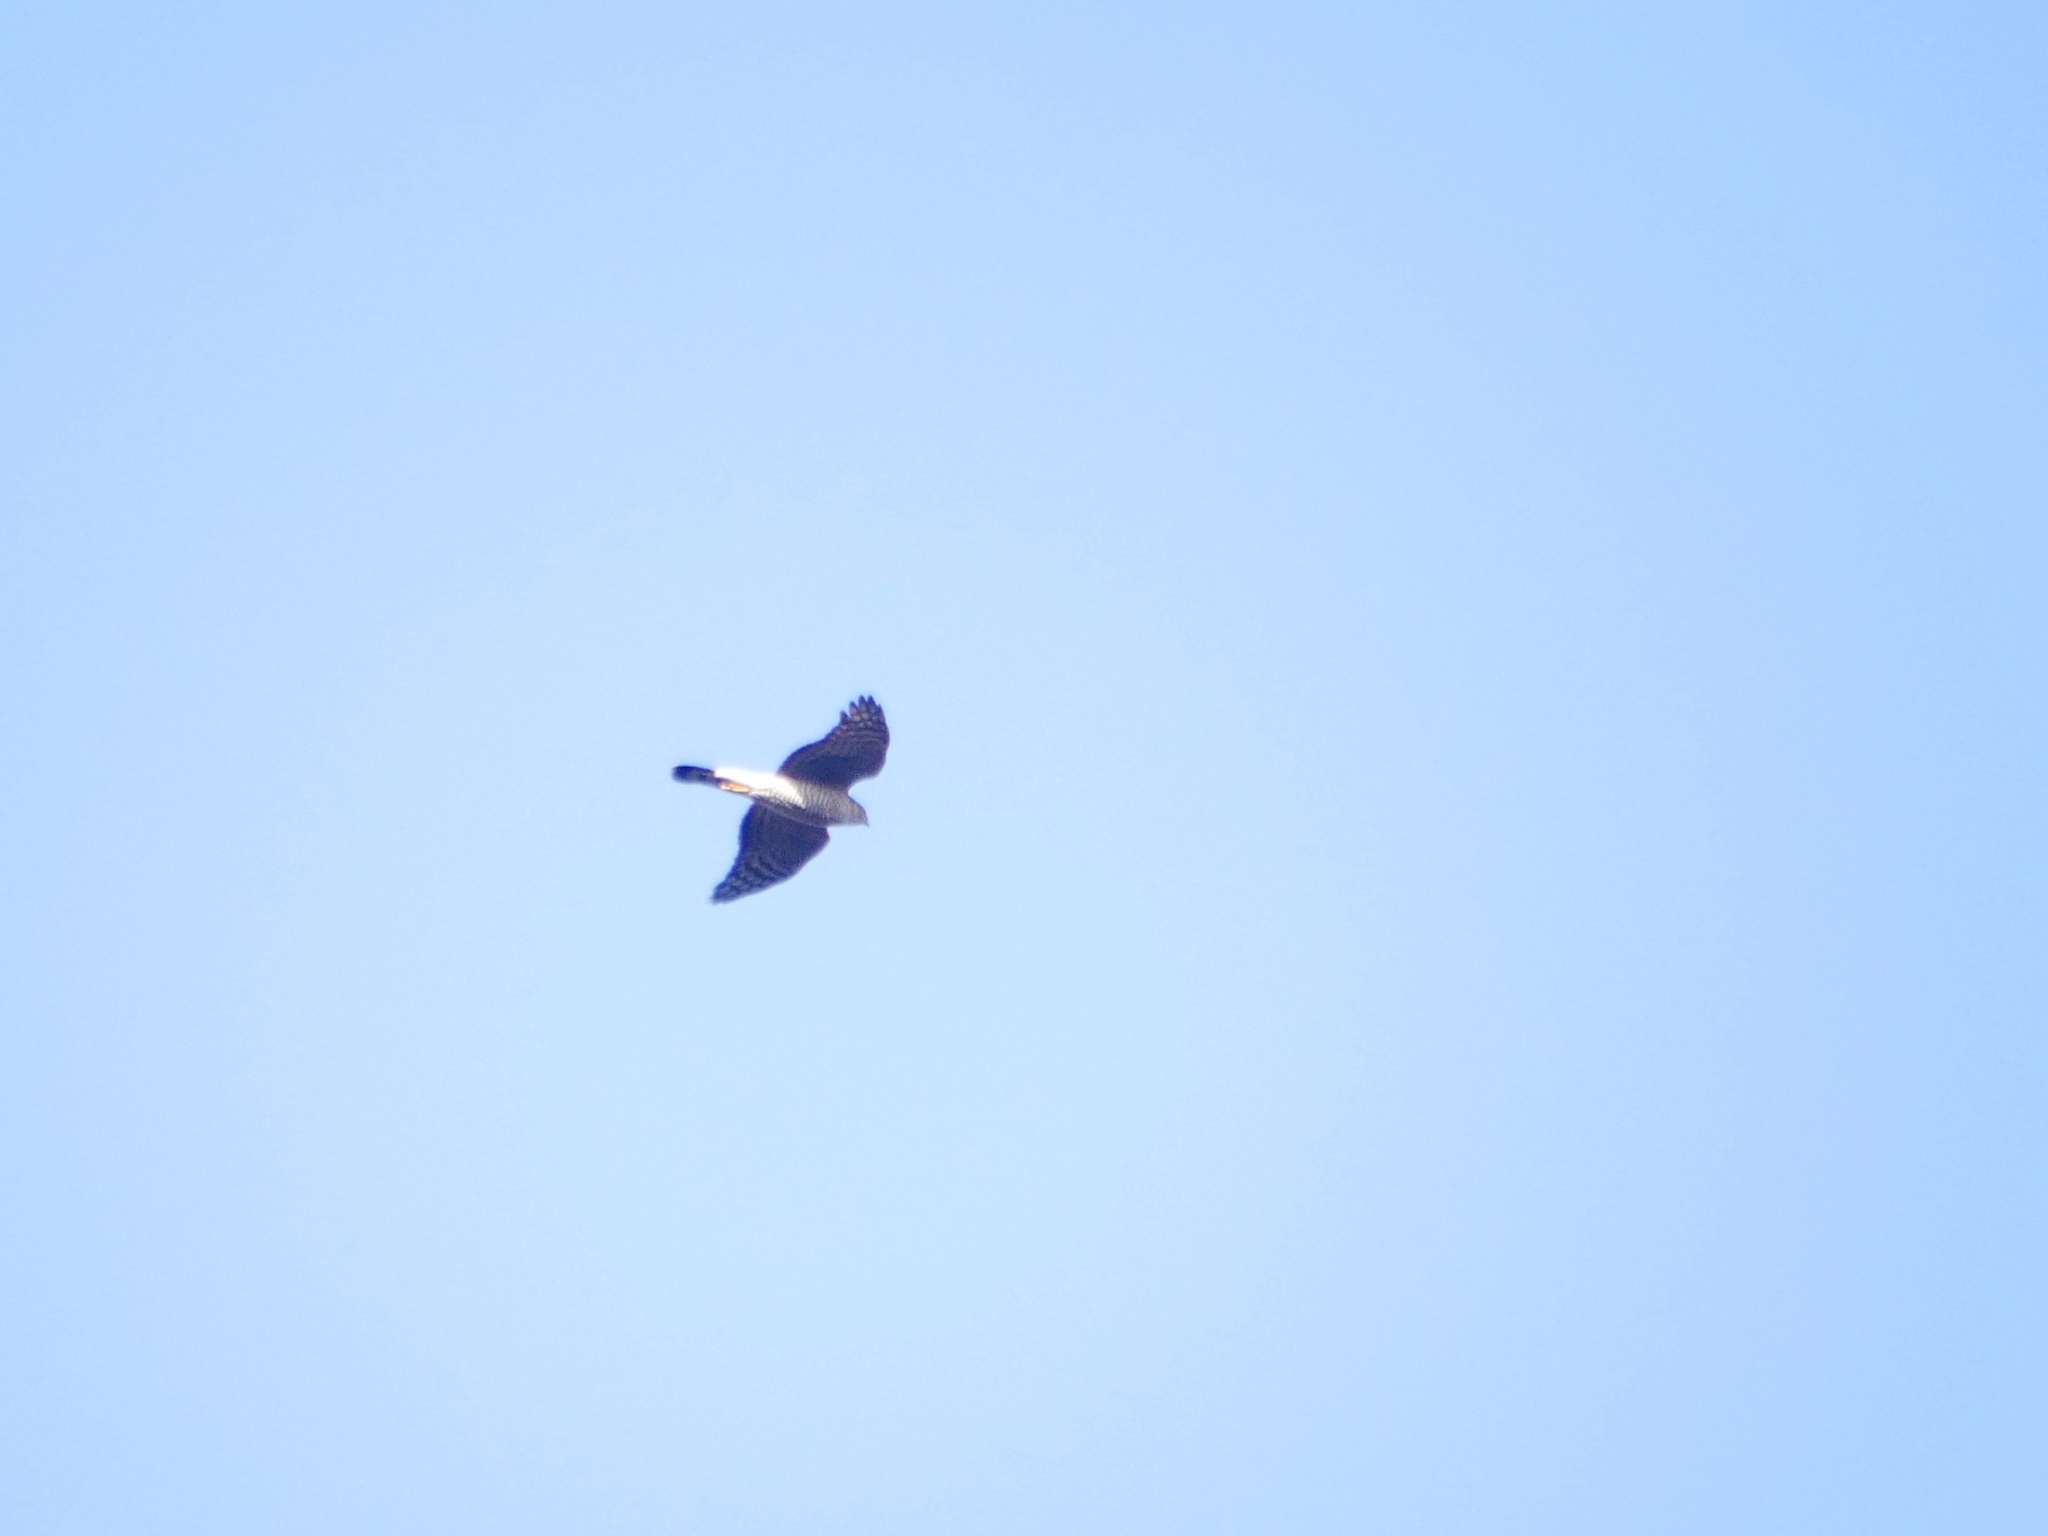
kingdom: Animalia
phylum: Chordata
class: Aves
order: Accipitriformes
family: Accipitridae
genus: Accipiter
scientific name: Accipiter nisus
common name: Eurasian sparrowhawk
